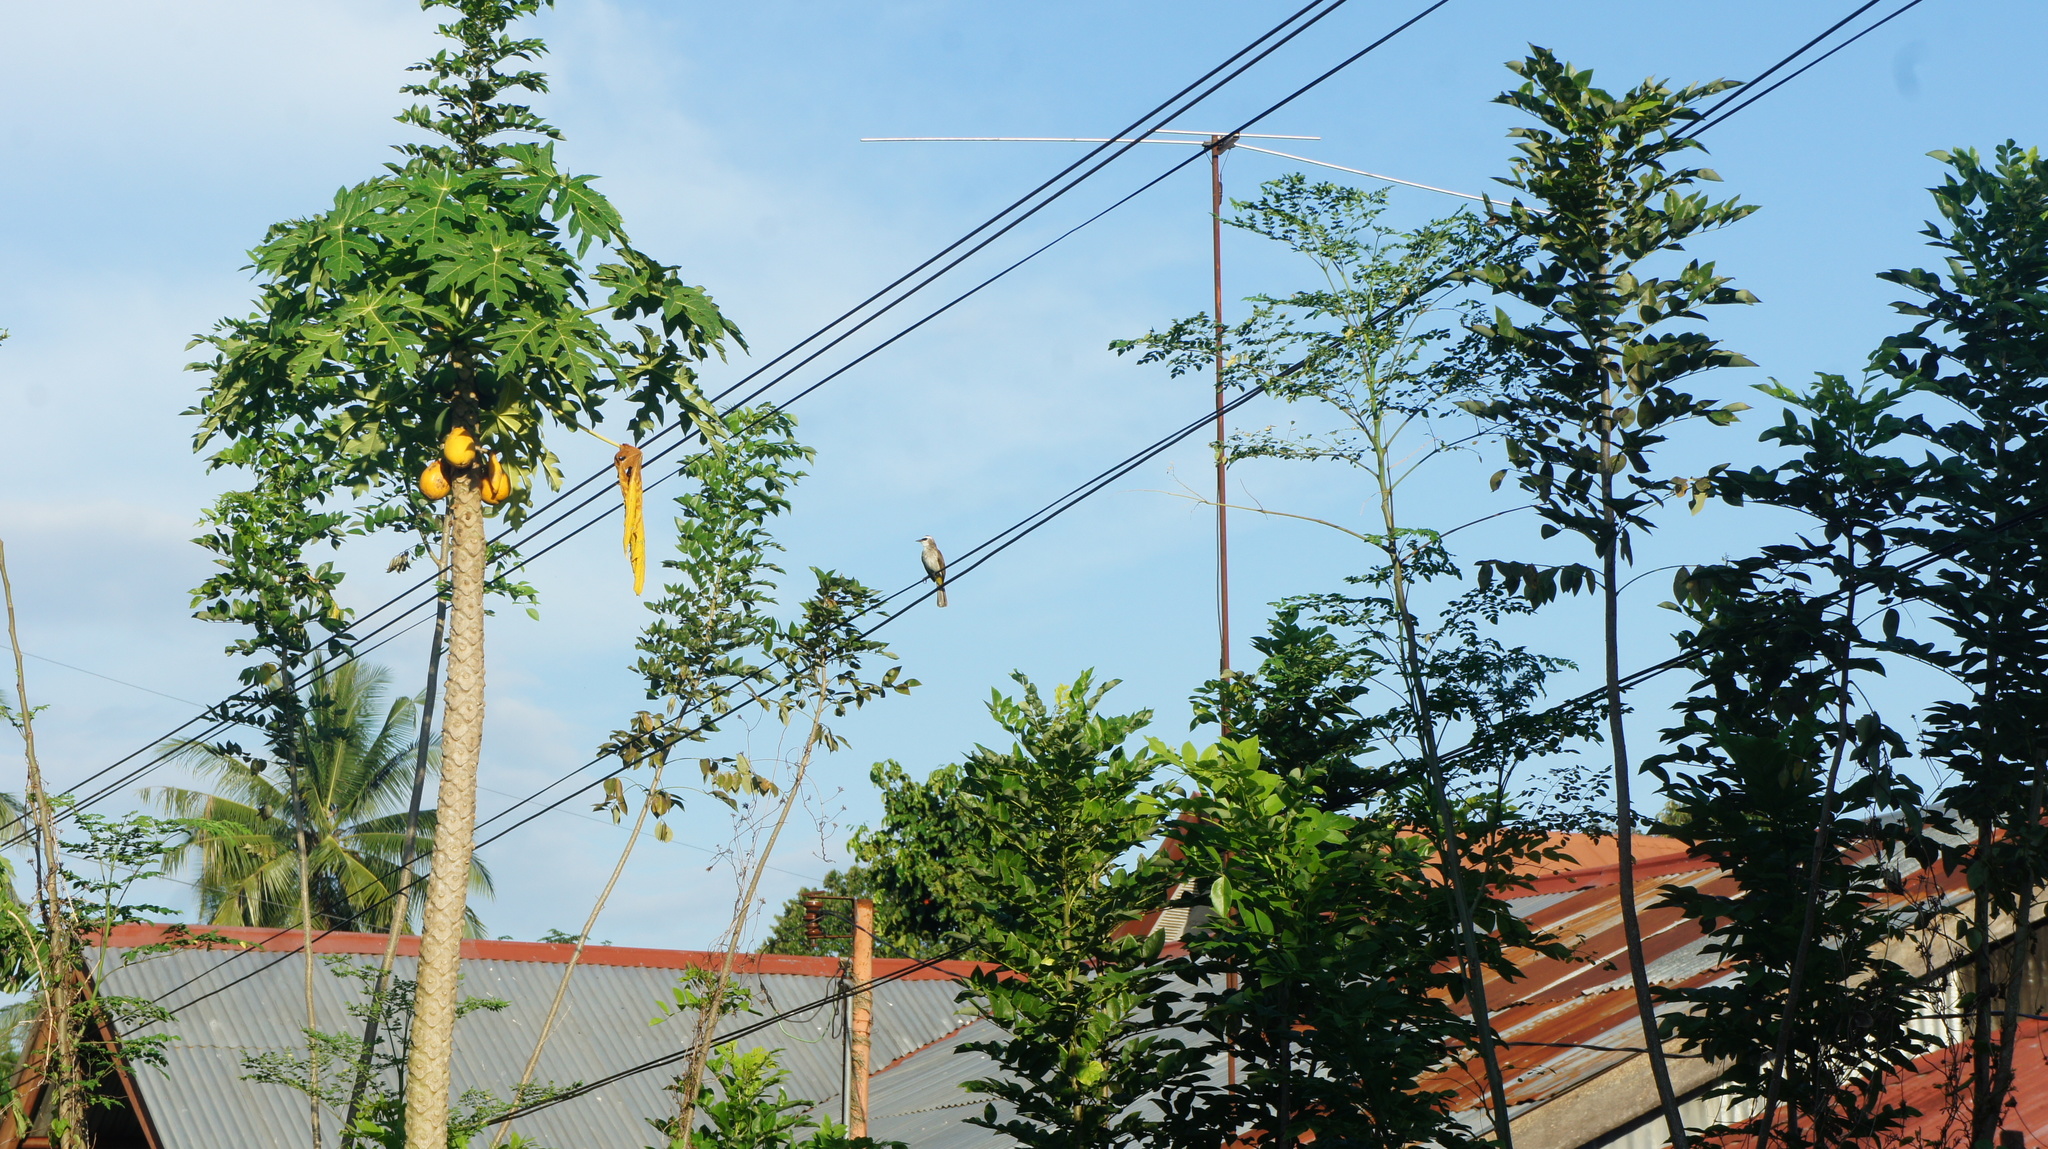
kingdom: Animalia
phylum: Chordata
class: Aves
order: Passeriformes
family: Pycnonotidae
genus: Pycnonotus
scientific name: Pycnonotus goiavier
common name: Yellow-vented bulbul
